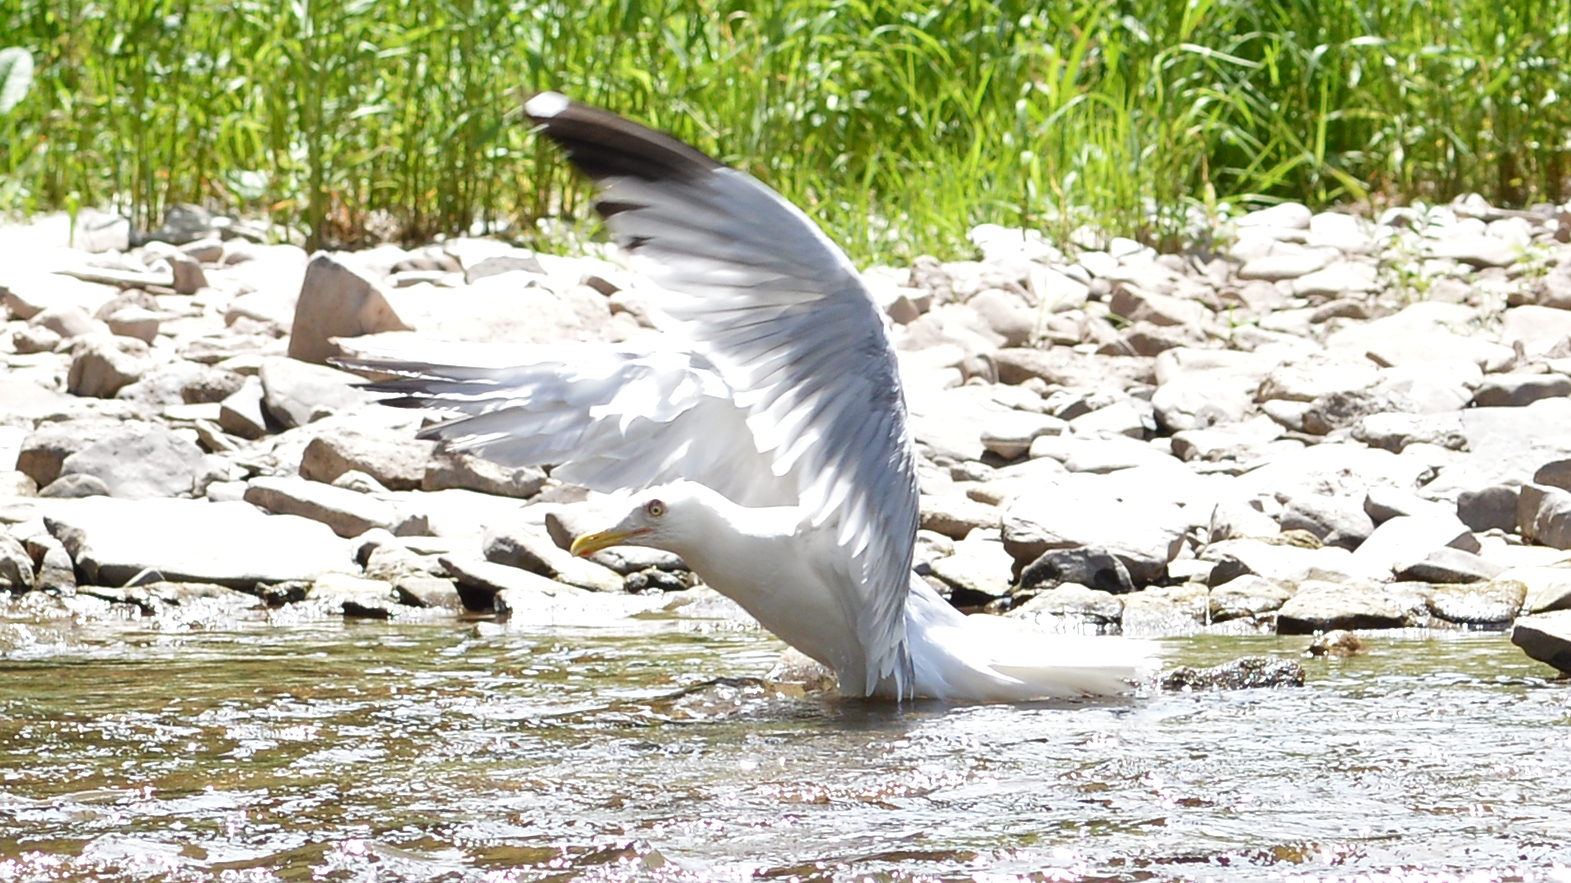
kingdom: Animalia
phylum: Chordata
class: Aves
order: Charadriiformes
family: Laridae
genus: Larus
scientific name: Larus smithsonianus
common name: American herring gull
